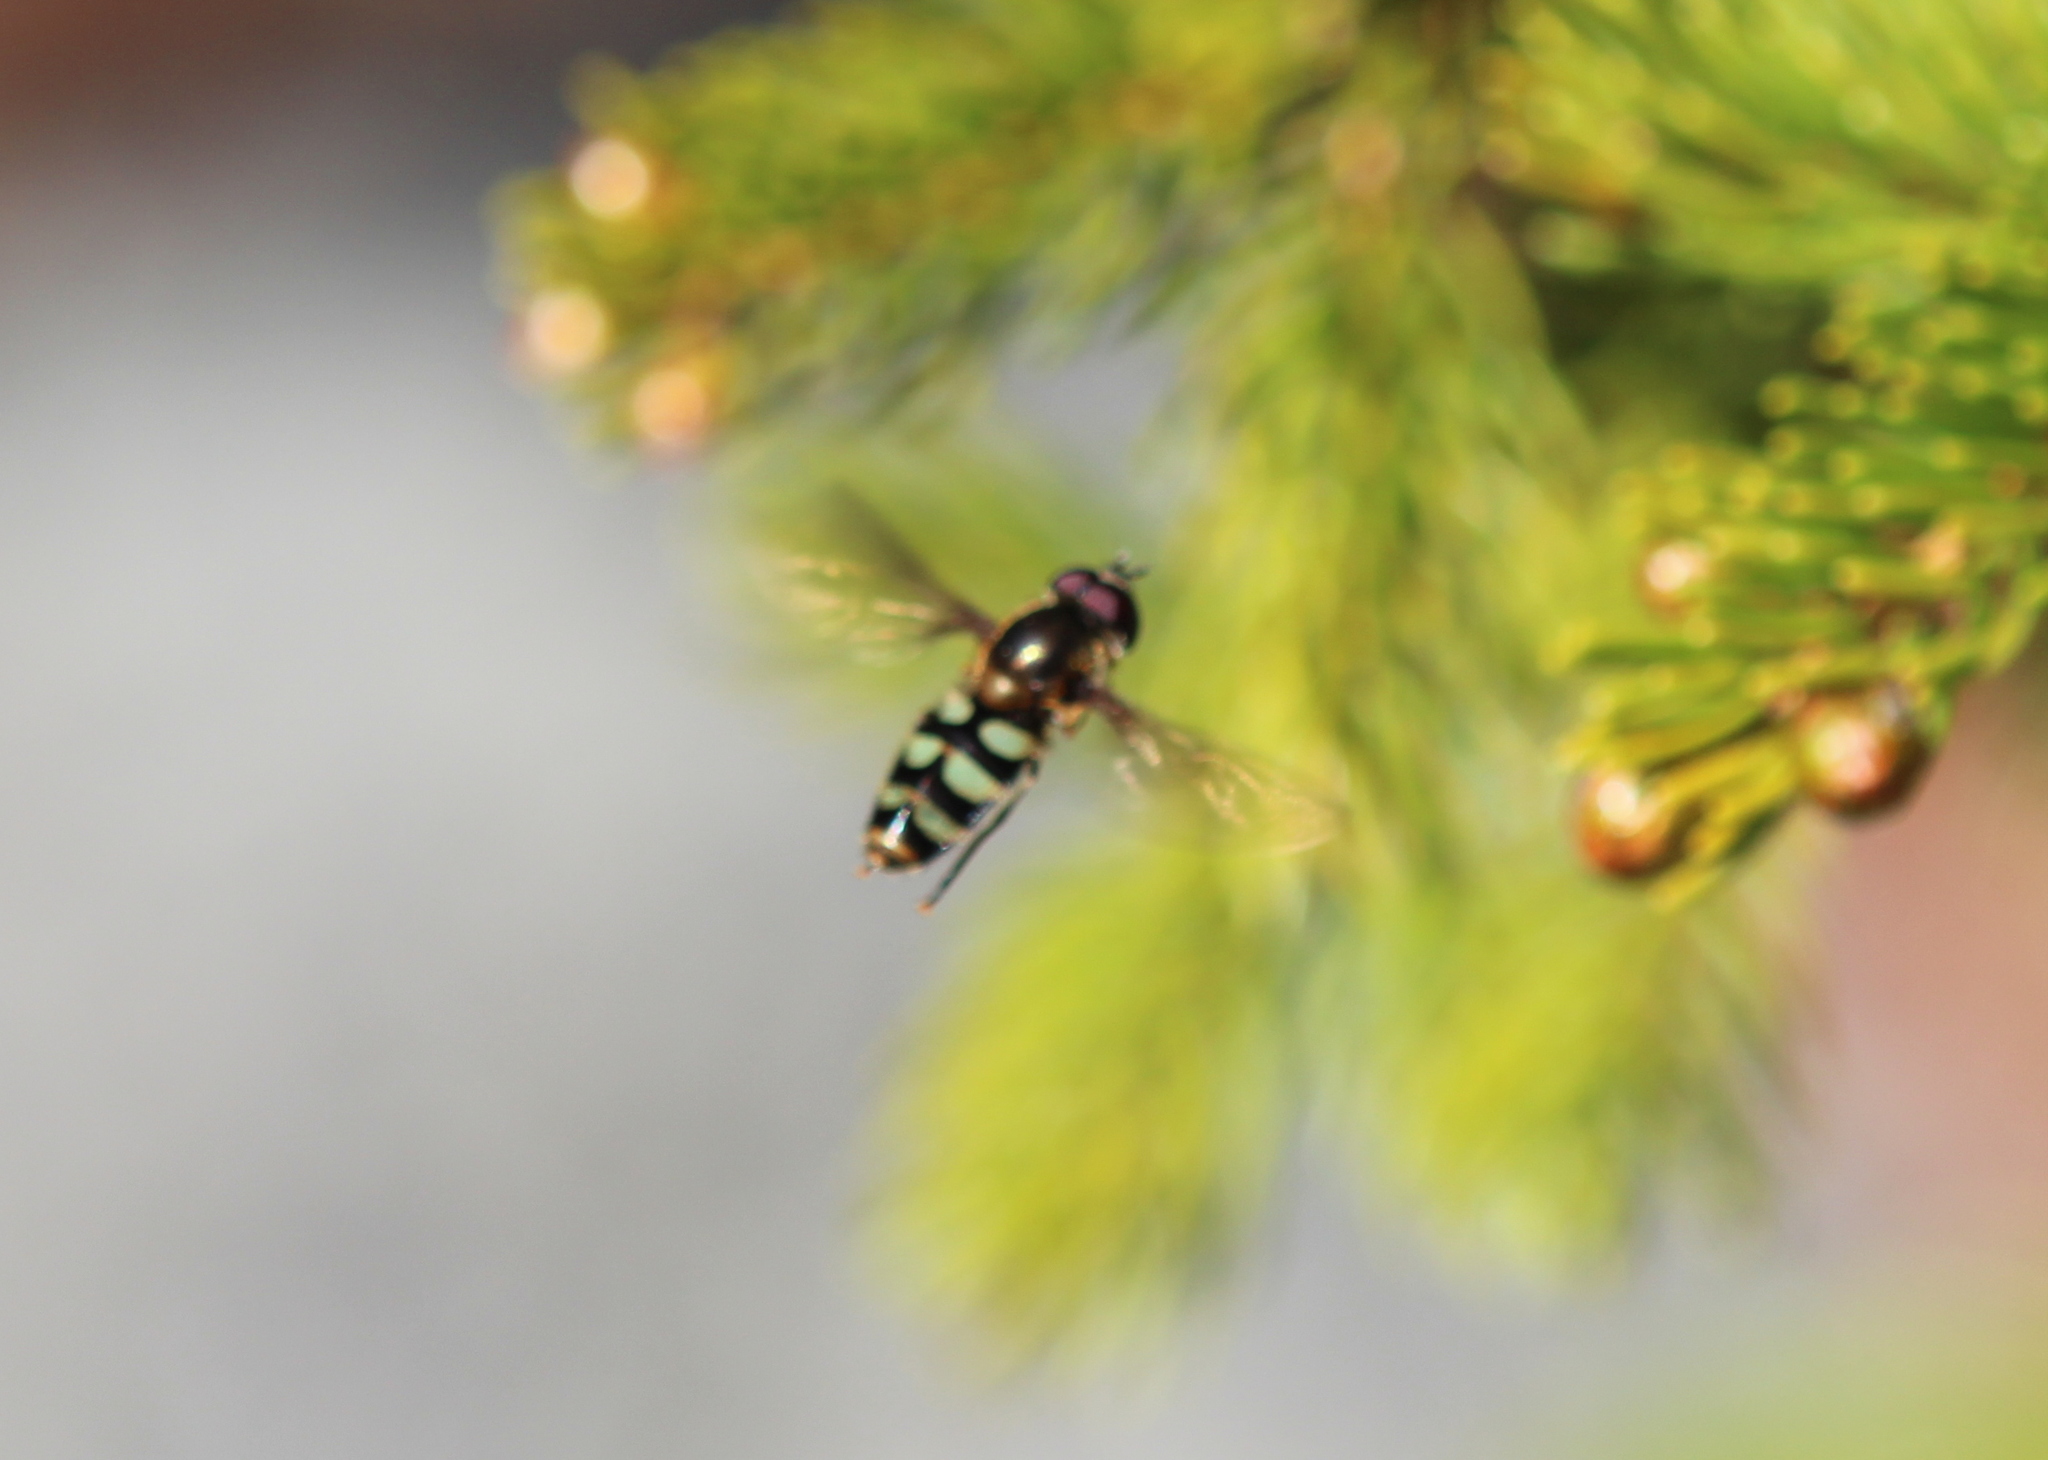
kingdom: Animalia
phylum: Arthropoda
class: Insecta
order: Diptera
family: Syrphidae
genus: Megasyrphus
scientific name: Megasyrphus laxus
